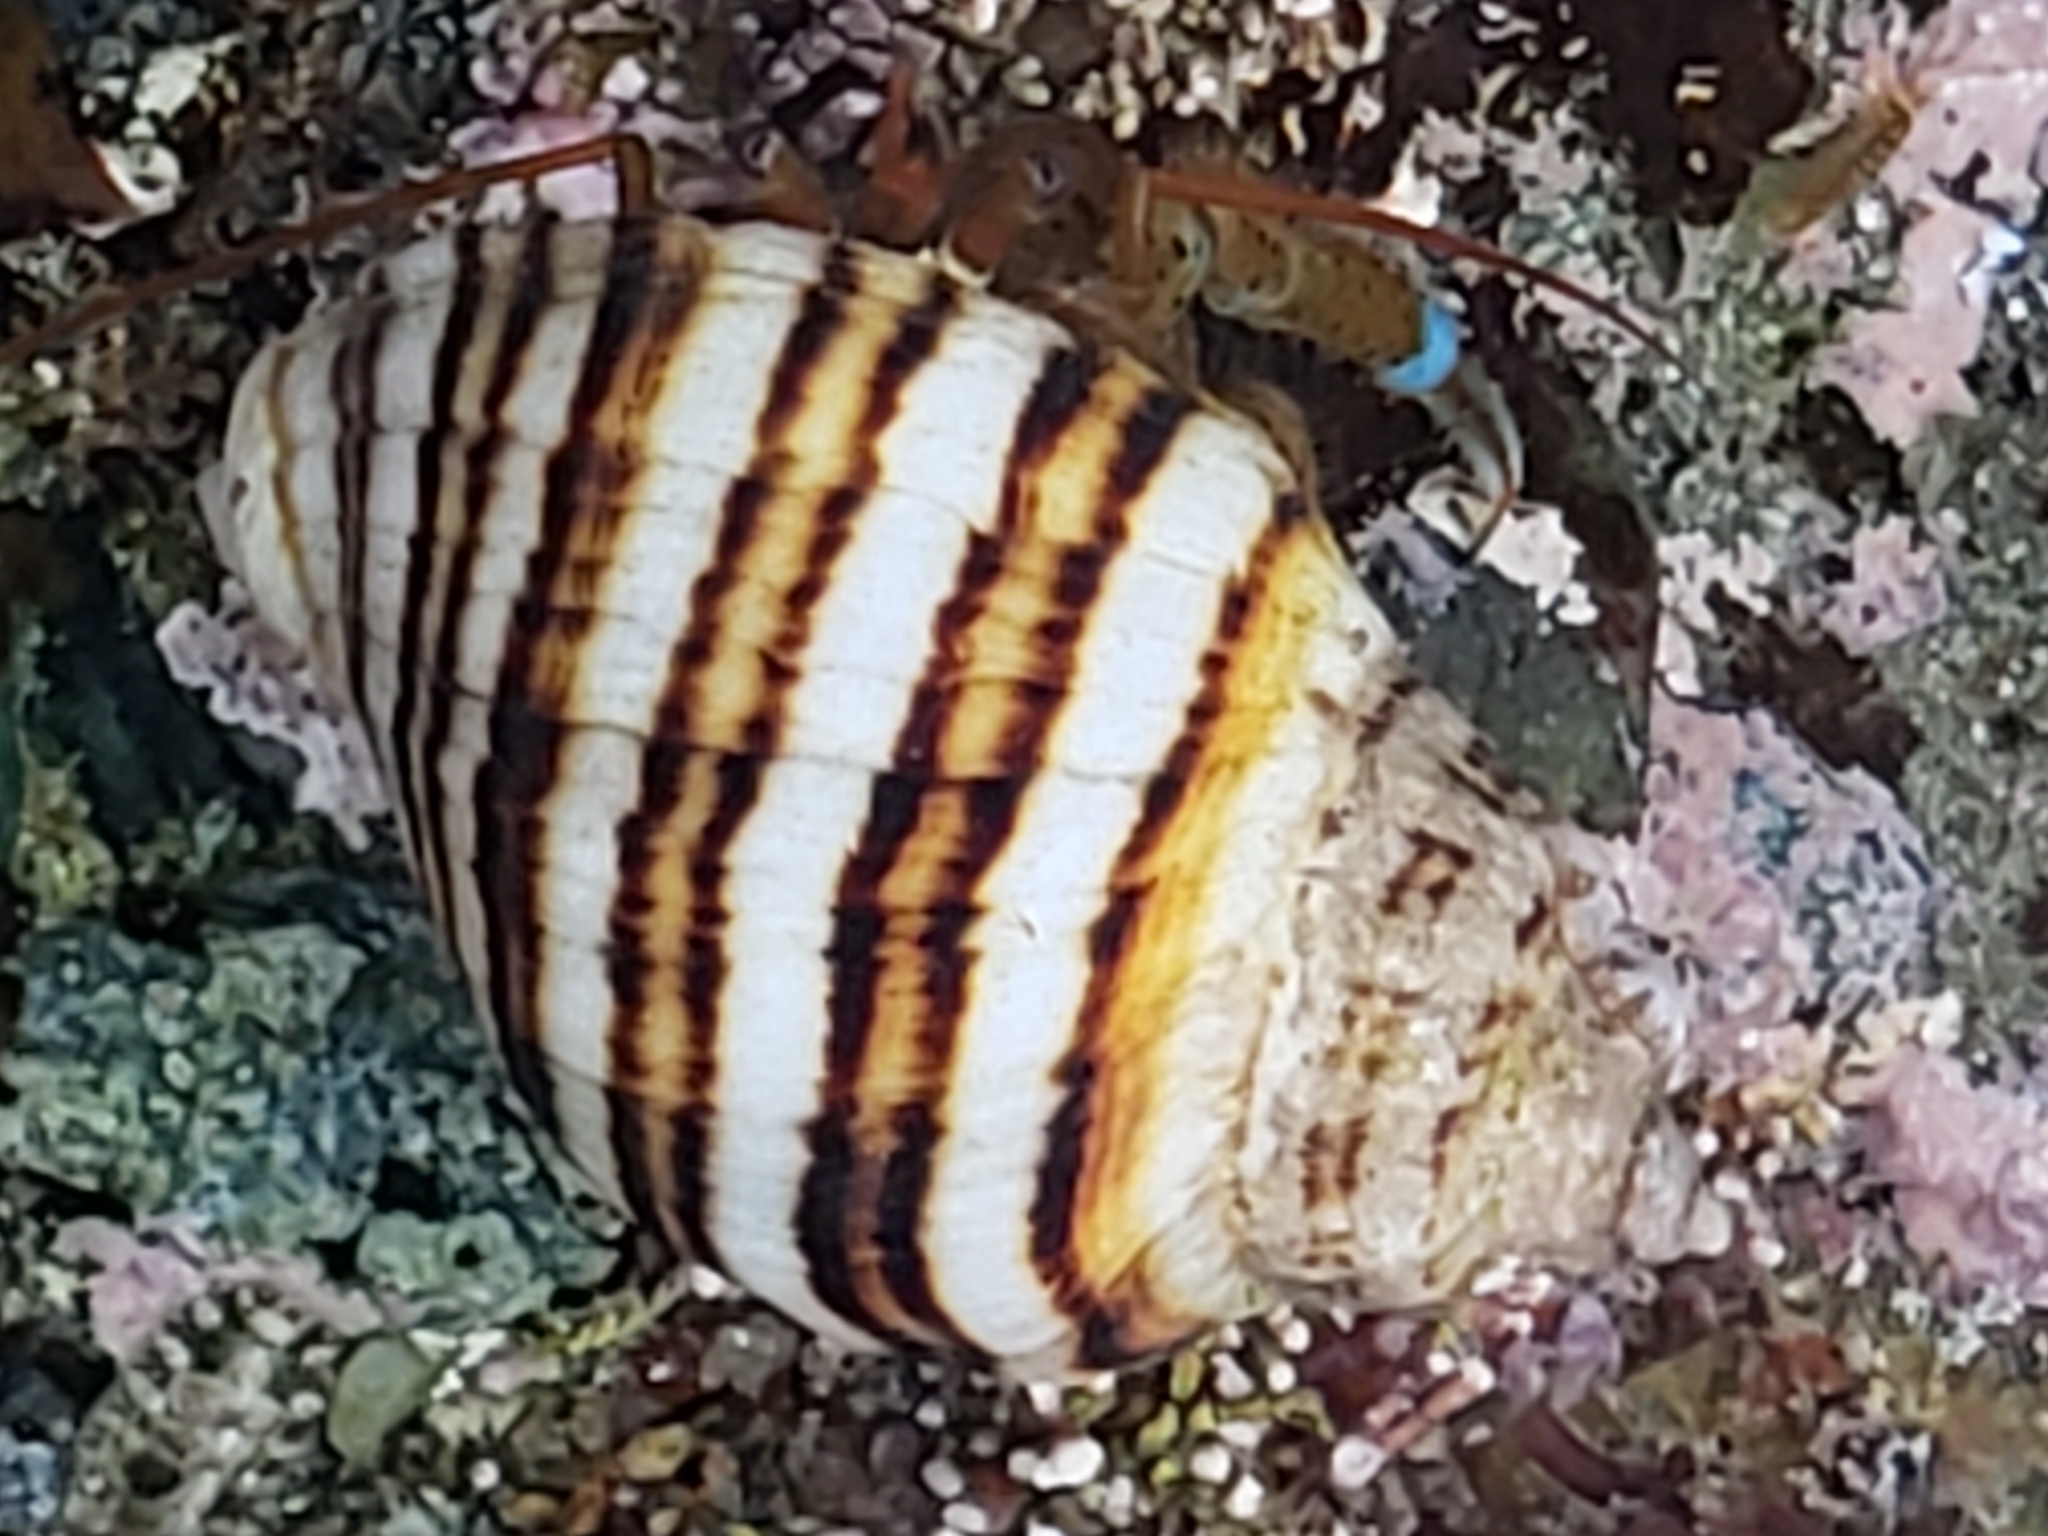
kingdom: Animalia
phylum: Mollusca
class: Gastropoda
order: Neogastropoda
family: Muricidae
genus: Nucella
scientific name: Nucella emarginata
